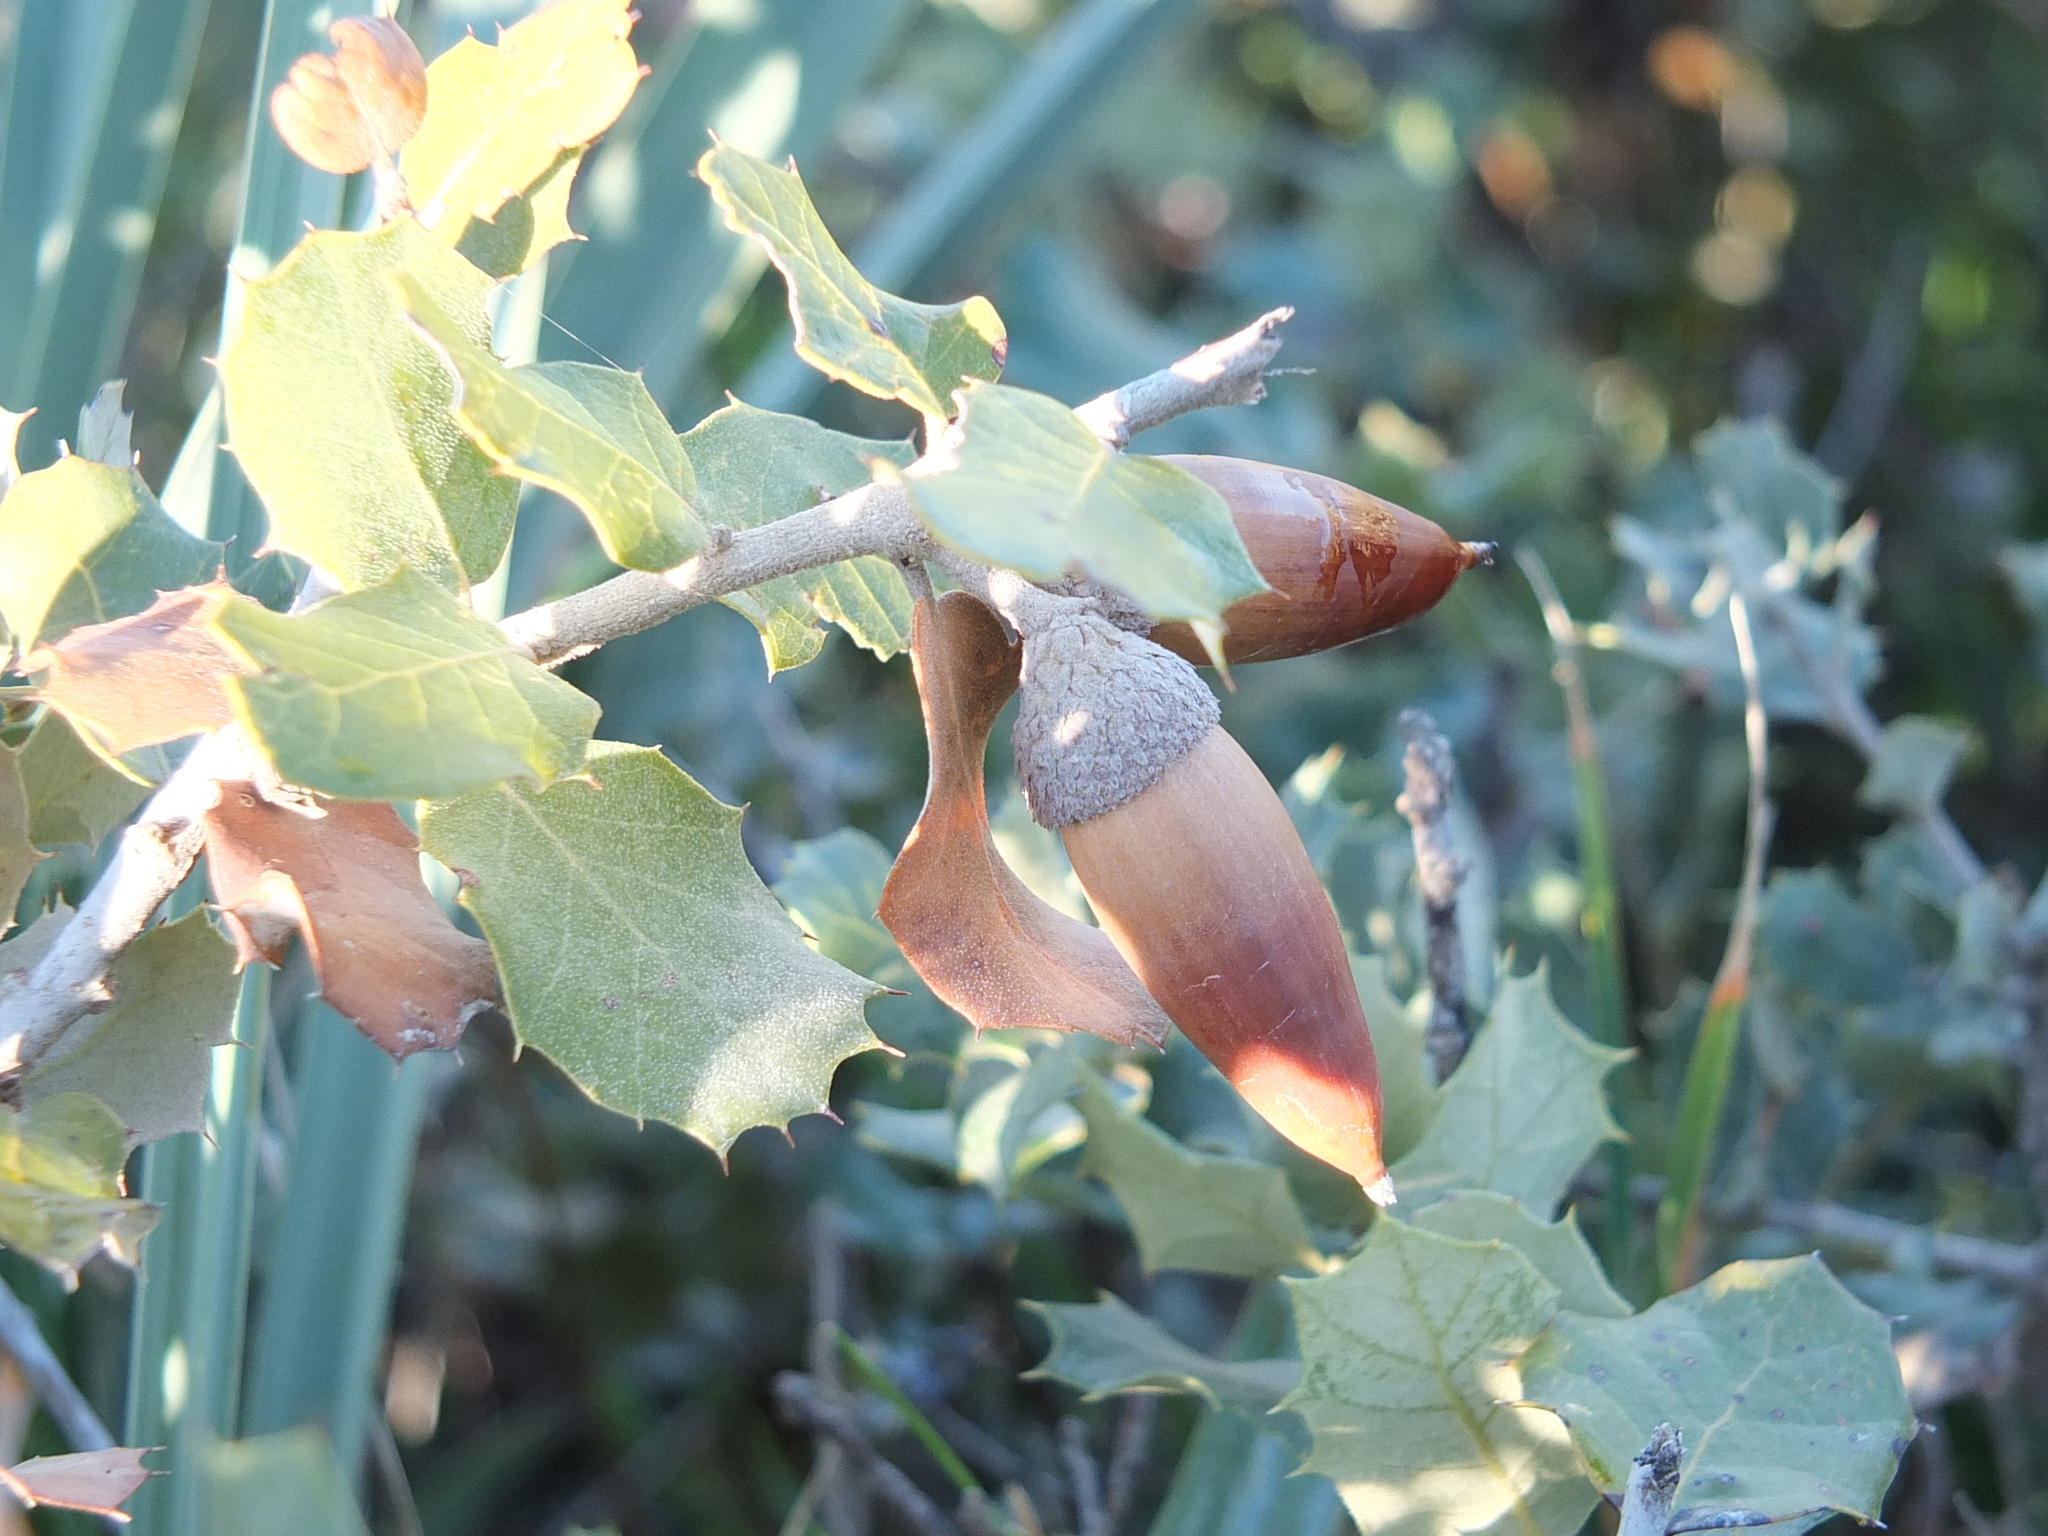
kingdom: Plantae
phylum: Tracheophyta
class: Magnoliopsida
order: Fagales
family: Fagaceae
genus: Quercus
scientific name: Quercus rotundifolia
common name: Holm oak
